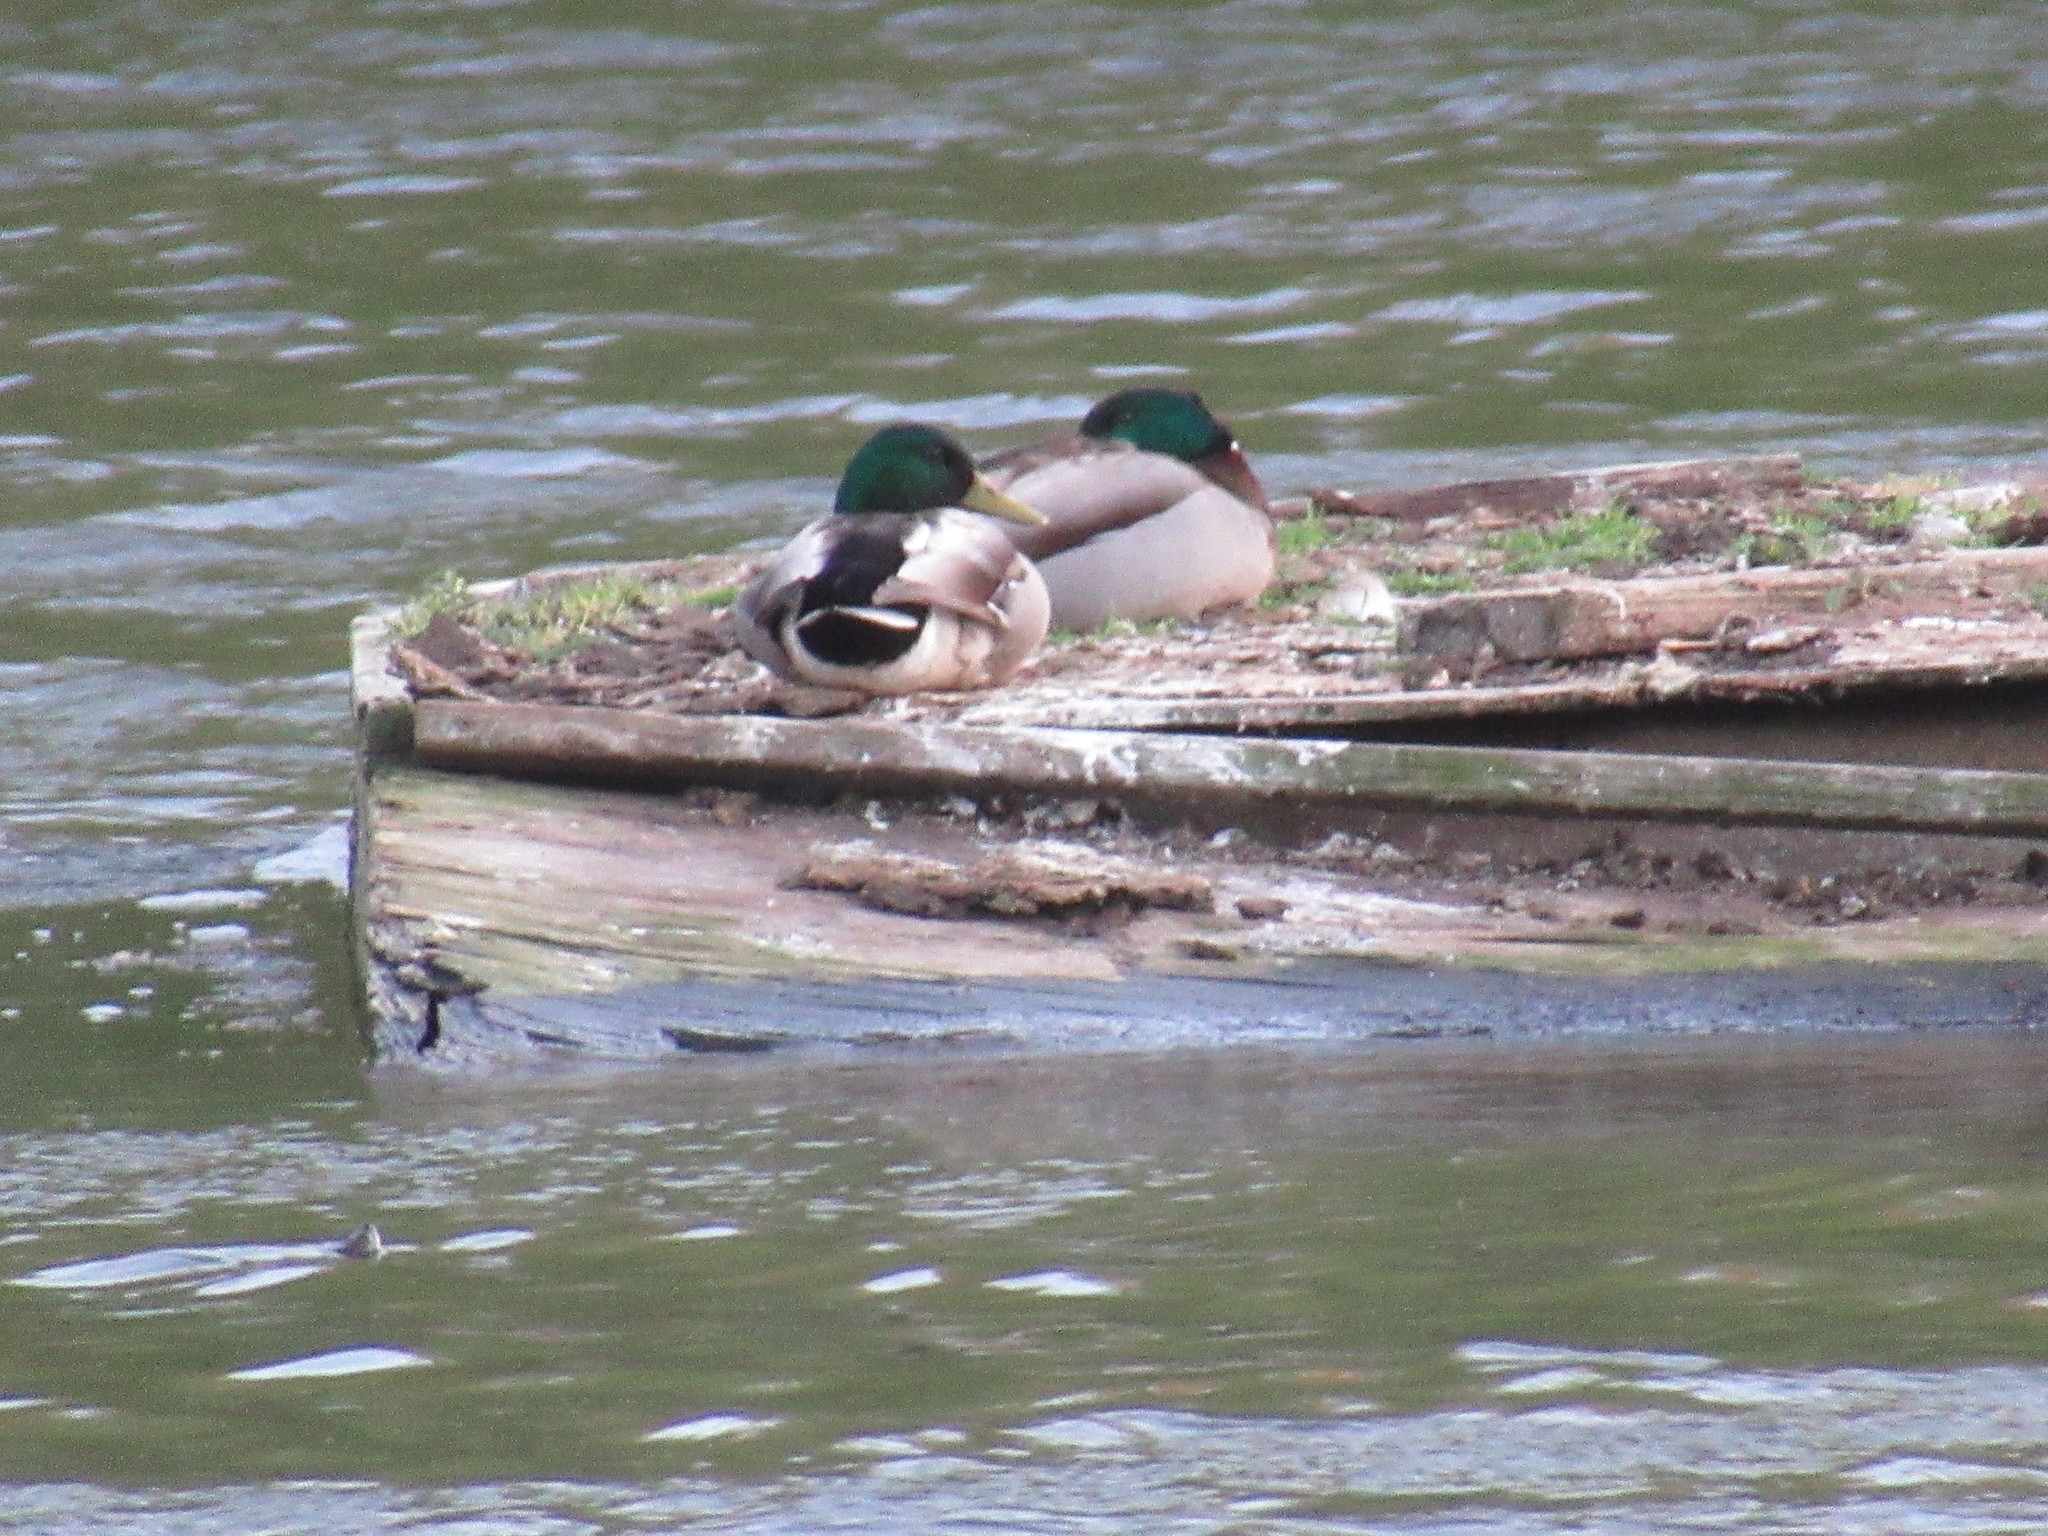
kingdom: Animalia
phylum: Chordata
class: Aves
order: Anseriformes
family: Anatidae
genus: Anas
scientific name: Anas platyrhynchos
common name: Mallard
